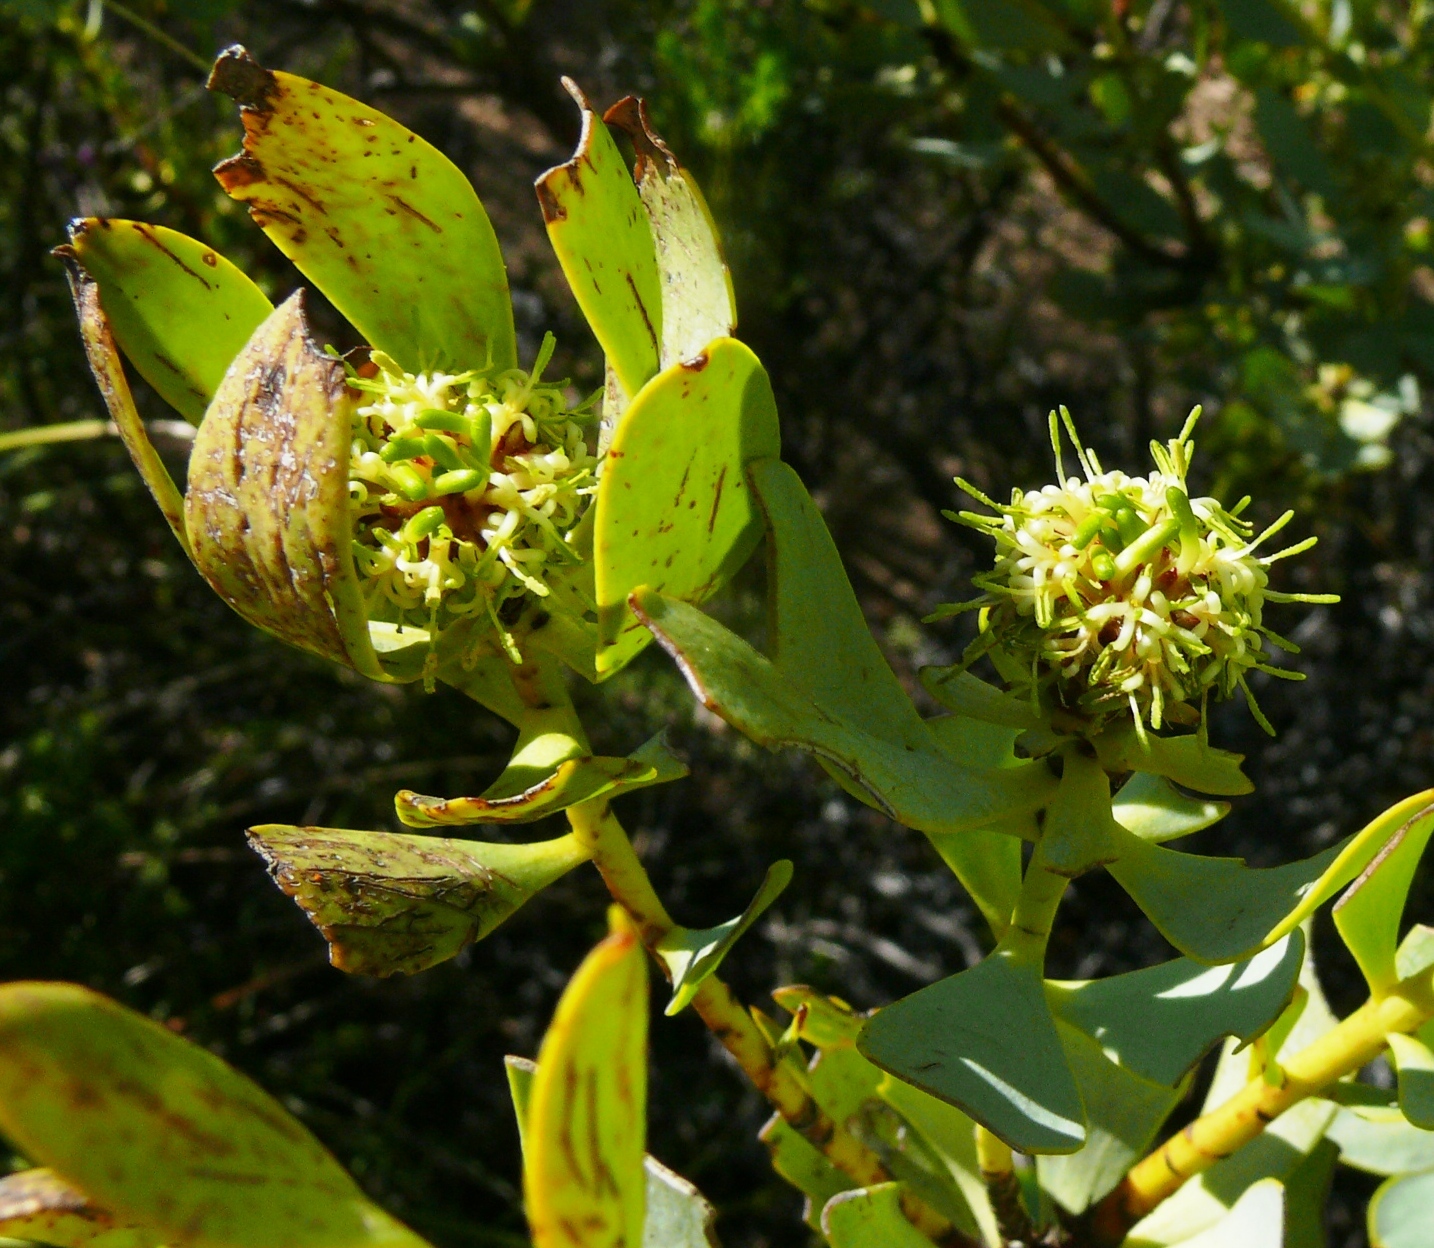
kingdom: Plantae
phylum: Tracheophyta
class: Magnoliopsida
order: Proteales
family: Proteaceae
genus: Leucadendron
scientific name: Leucadendron loranthifolium
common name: Green-flower sunbush
